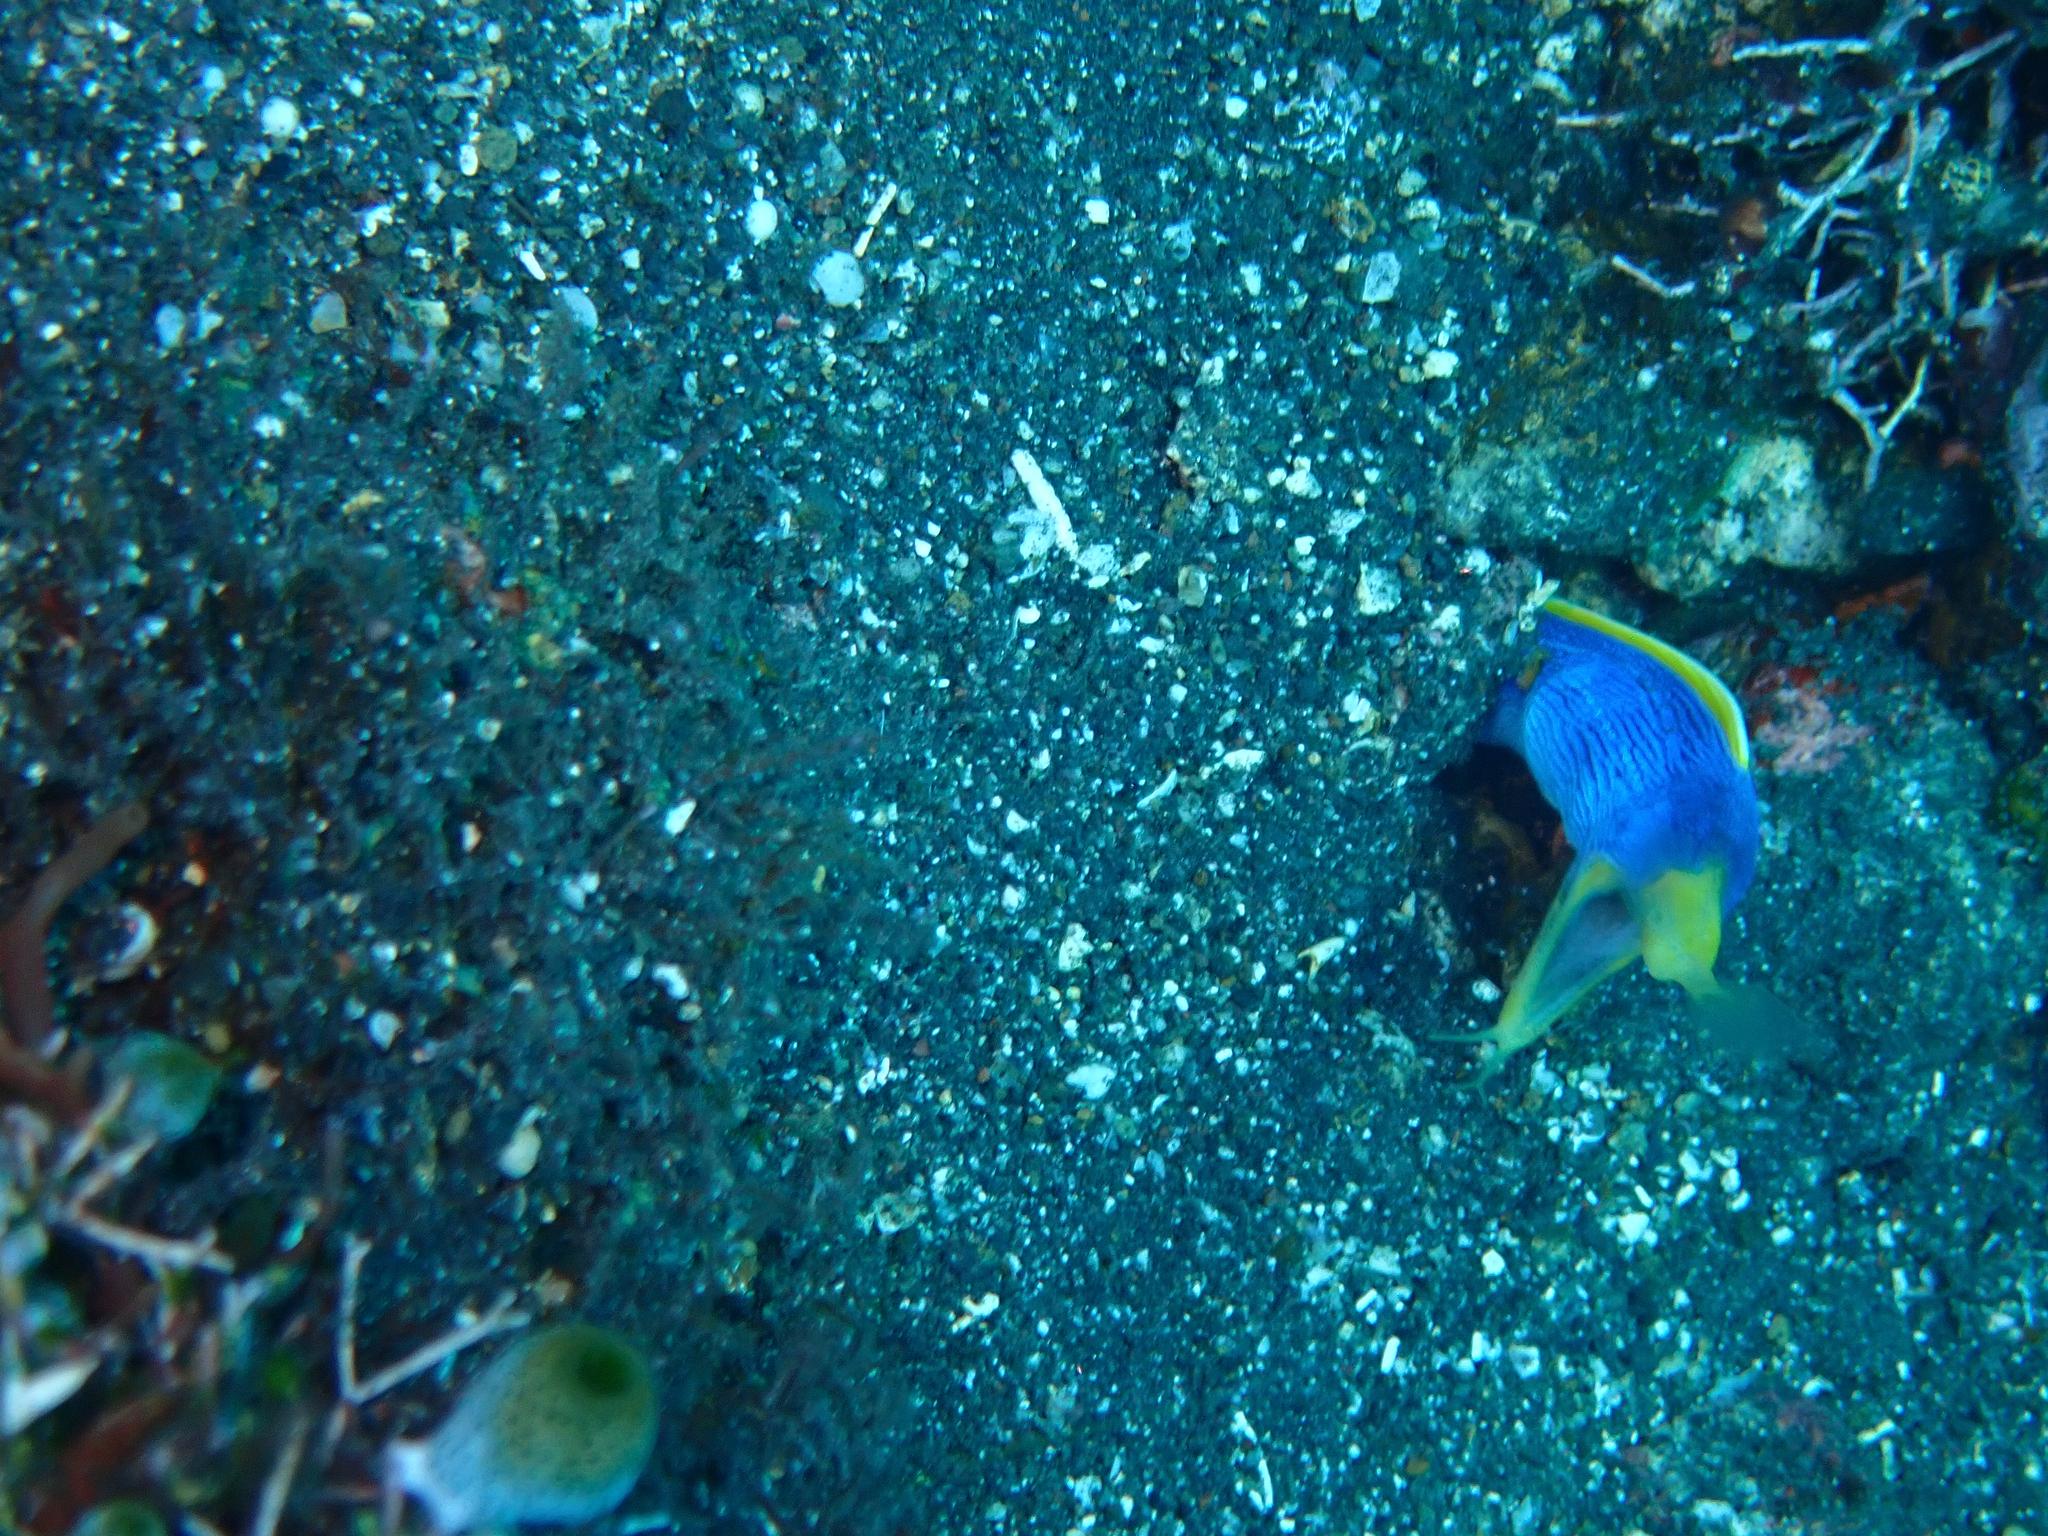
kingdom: Animalia
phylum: Chordata
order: Anguilliformes
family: Muraenidae
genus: Rhinomuraena
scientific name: Rhinomuraena quaesita
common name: Ribbon eel
